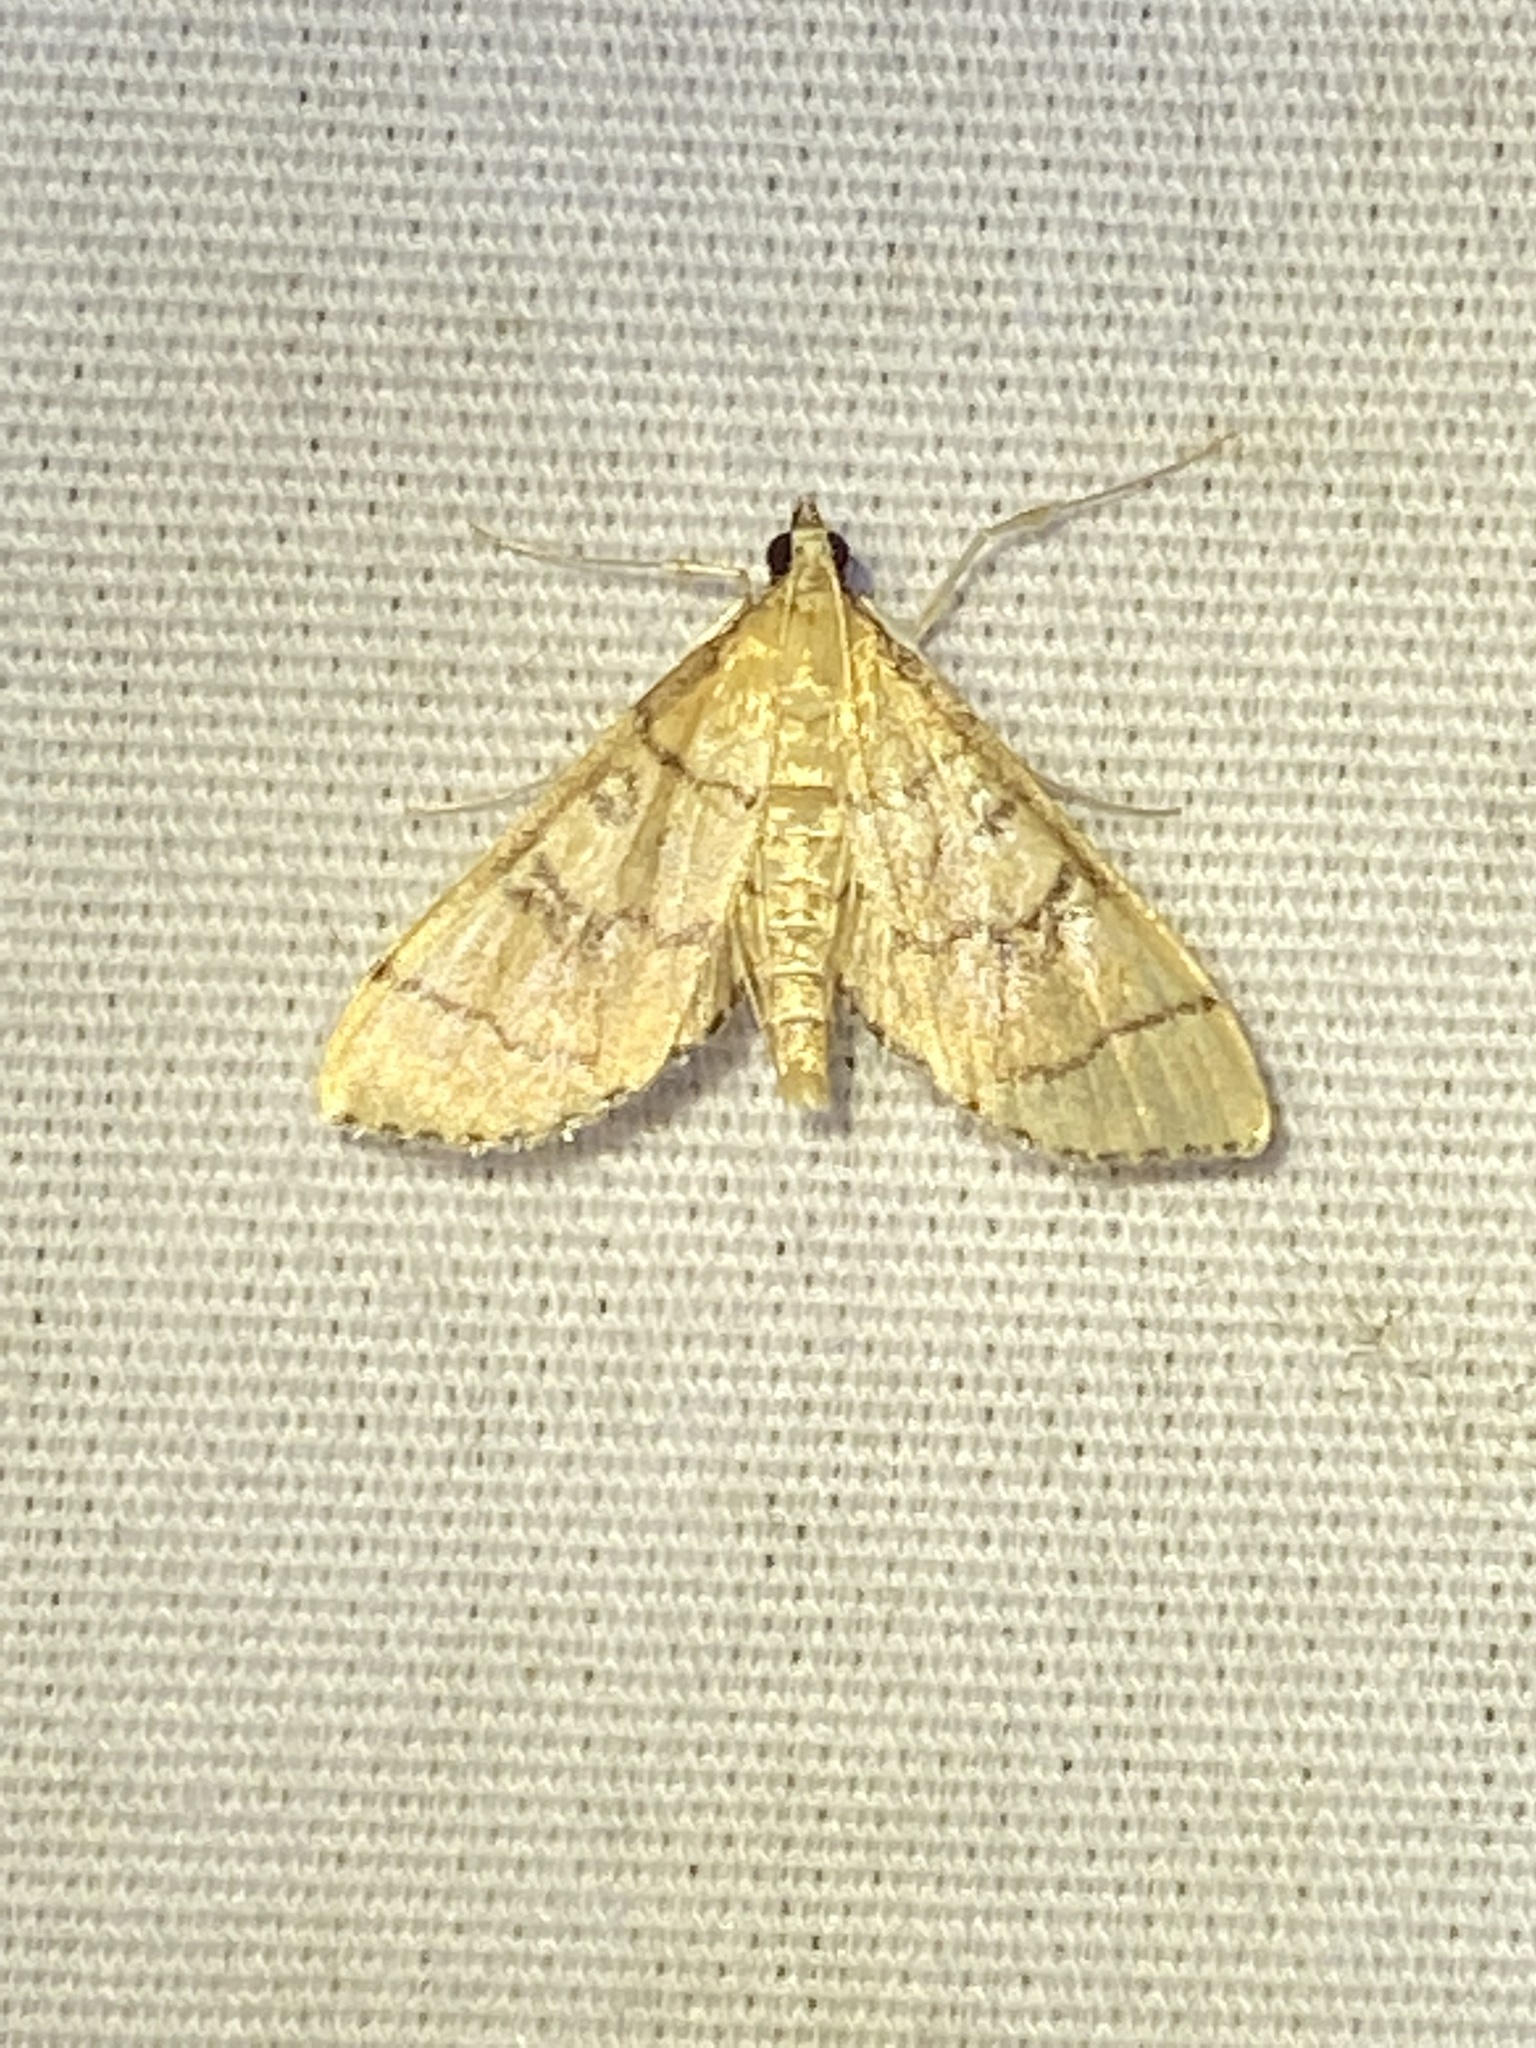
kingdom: Animalia
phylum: Arthropoda
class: Insecta
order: Lepidoptera
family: Crambidae
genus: Lamprosema
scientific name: Lamprosema Blepharomastix ranalis
